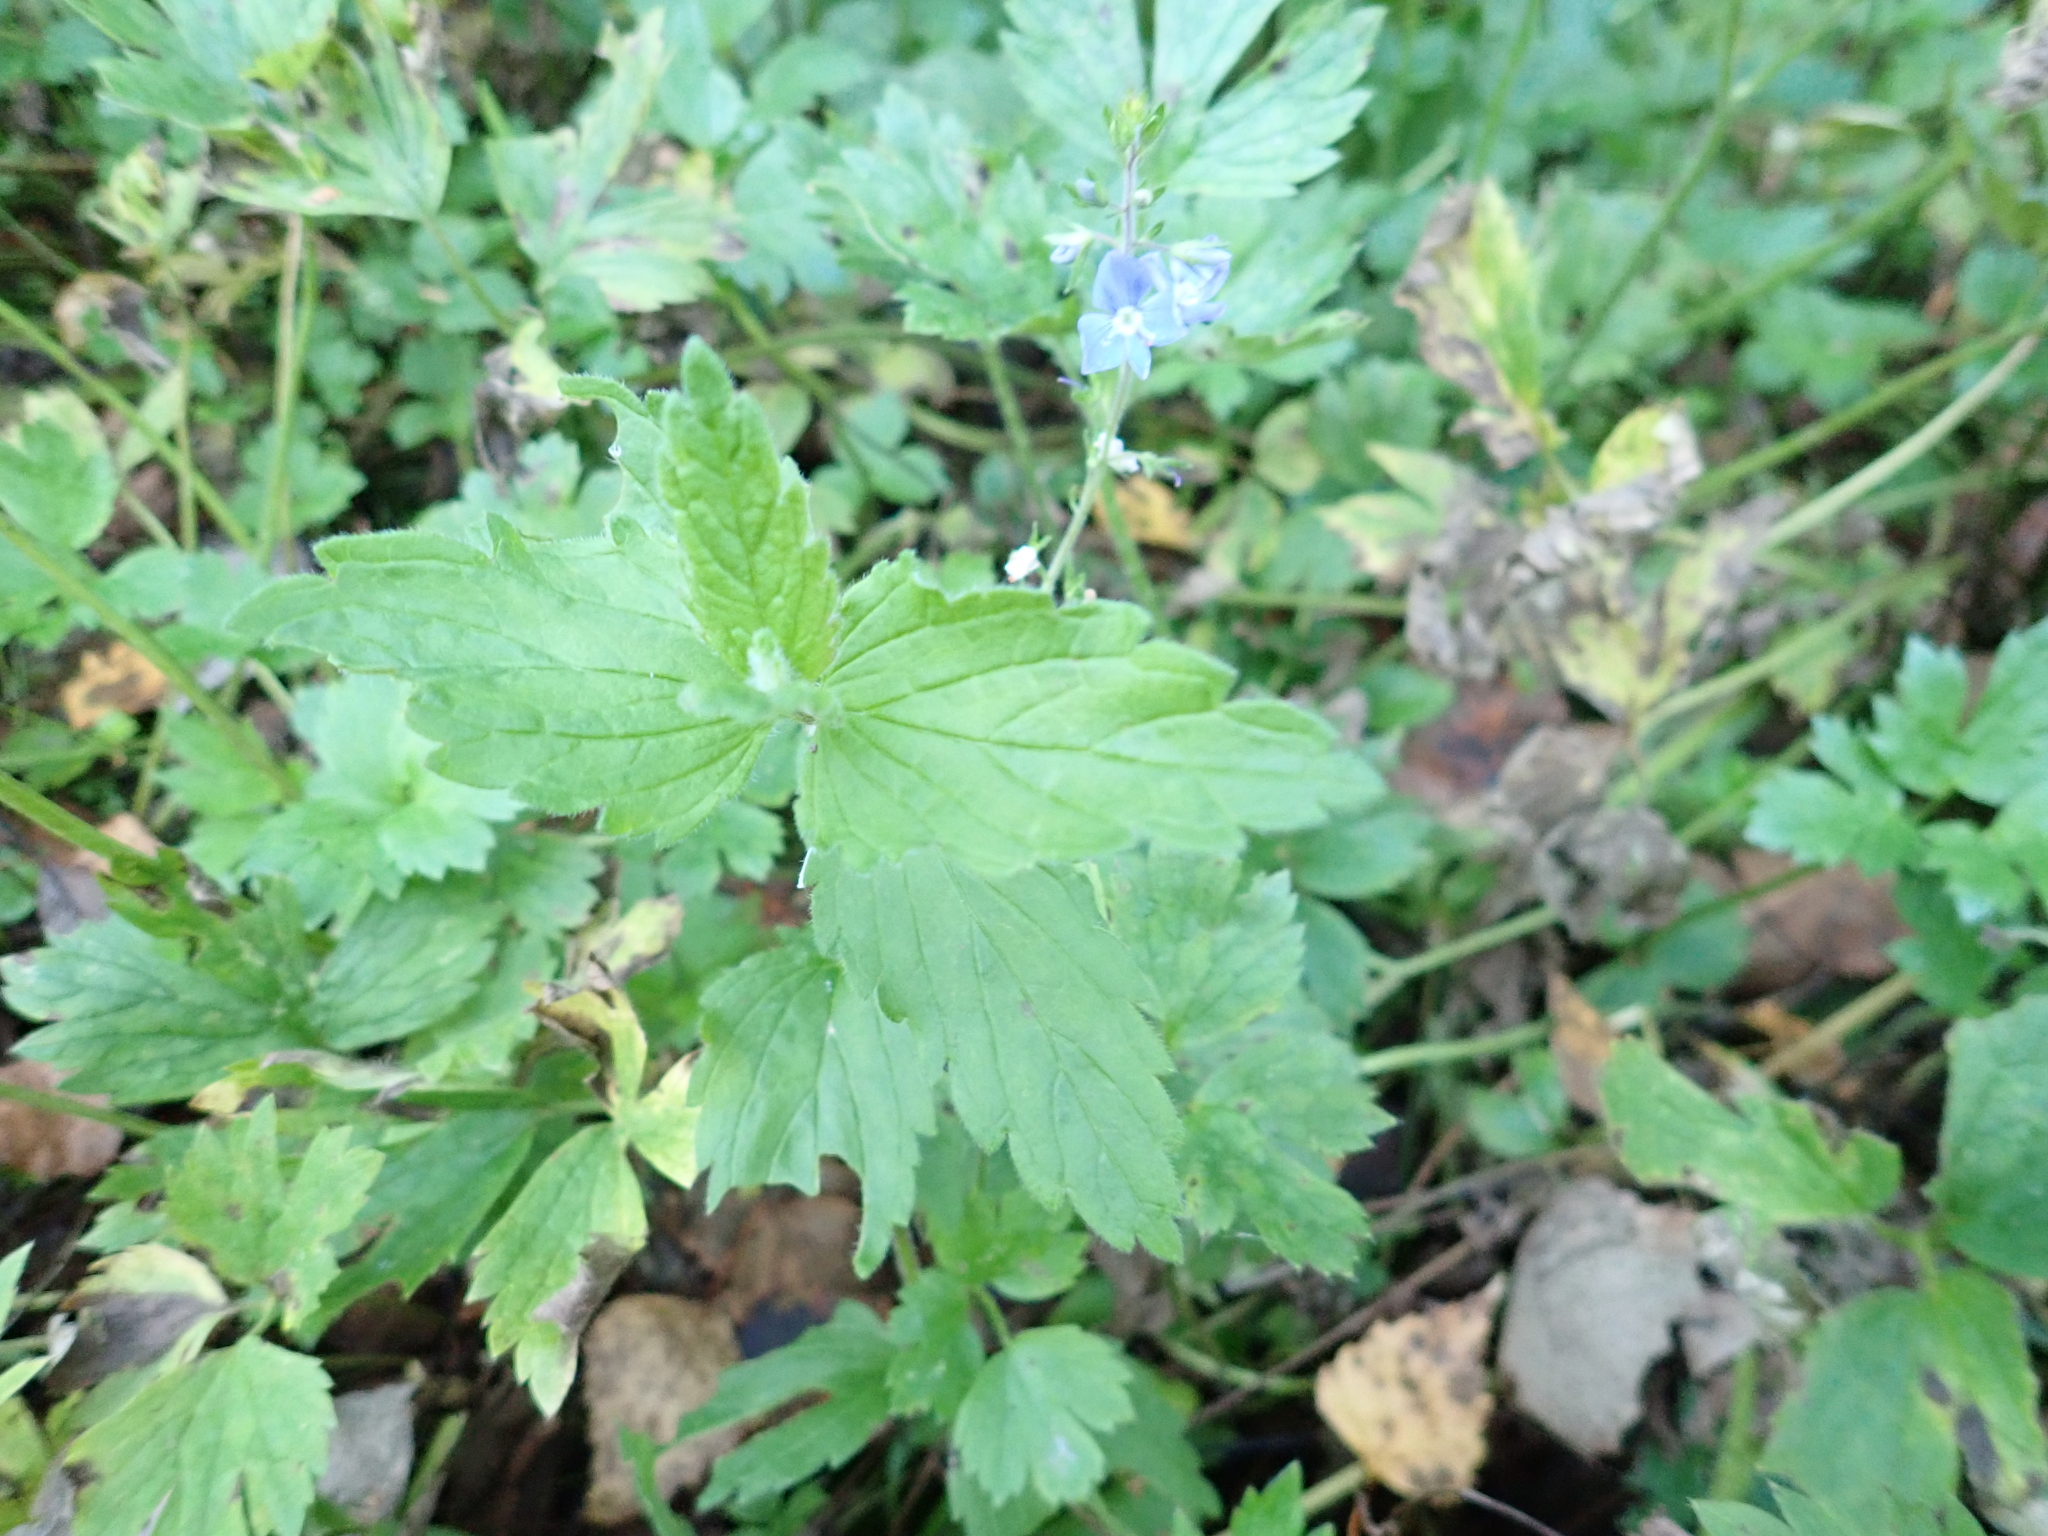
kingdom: Plantae
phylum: Tracheophyta
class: Magnoliopsida
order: Lamiales
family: Plantaginaceae
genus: Veronica
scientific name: Veronica chamaedrys
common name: Germander speedwell
